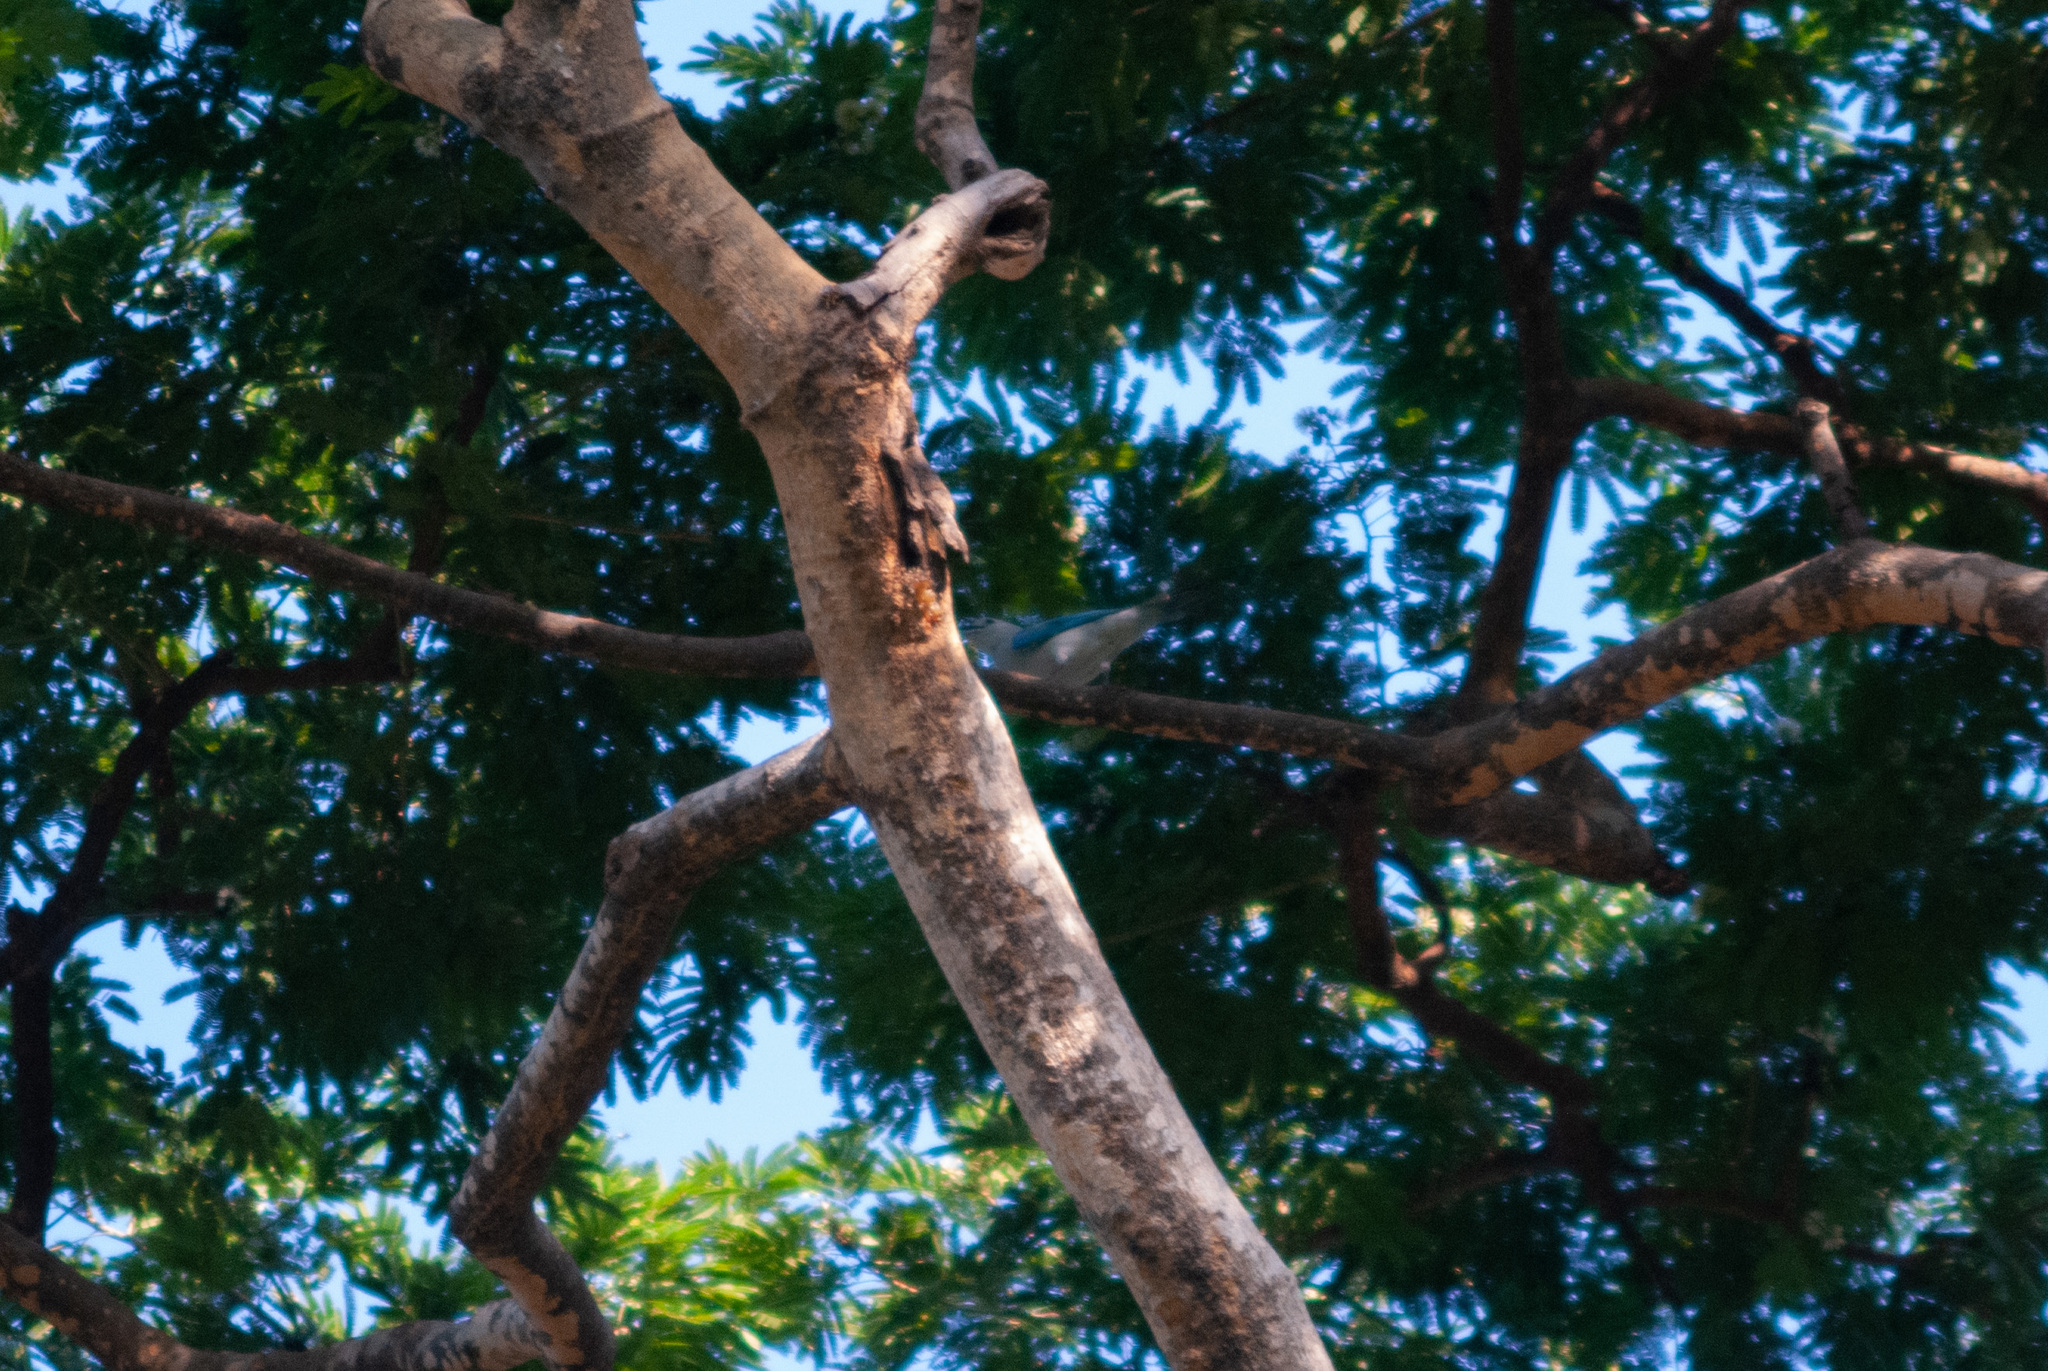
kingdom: Animalia
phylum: Chordata
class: Aves
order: Passeriformes
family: Thraupidae
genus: Thraupis
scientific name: Thraupis episcopus
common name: Blue-grey tanager
